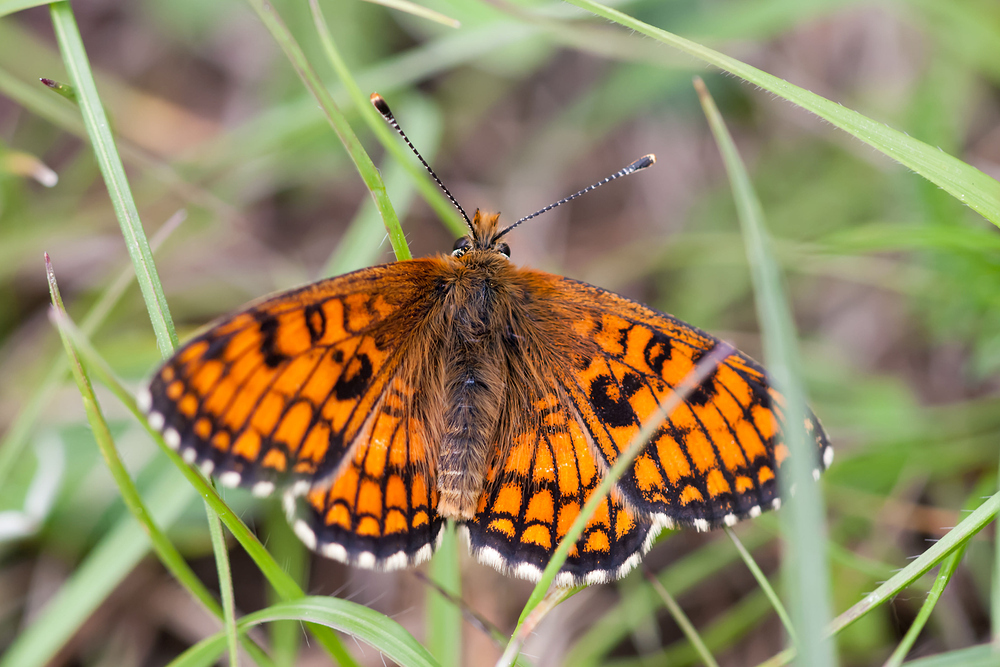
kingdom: Animalia
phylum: Arthropoda
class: Insecta
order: Lepidoptera
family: Nymphalidae
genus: Mellicta
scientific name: Mellicta parthenoides
